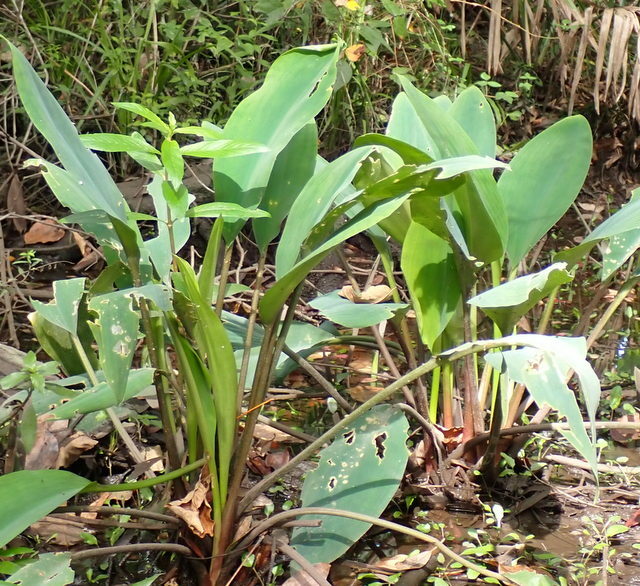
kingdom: Plantae
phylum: Tracheophyta
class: Liliopsida
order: Alismatales
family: Araceae
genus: Orontium
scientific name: Orontium aquaticum
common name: Golden-club
